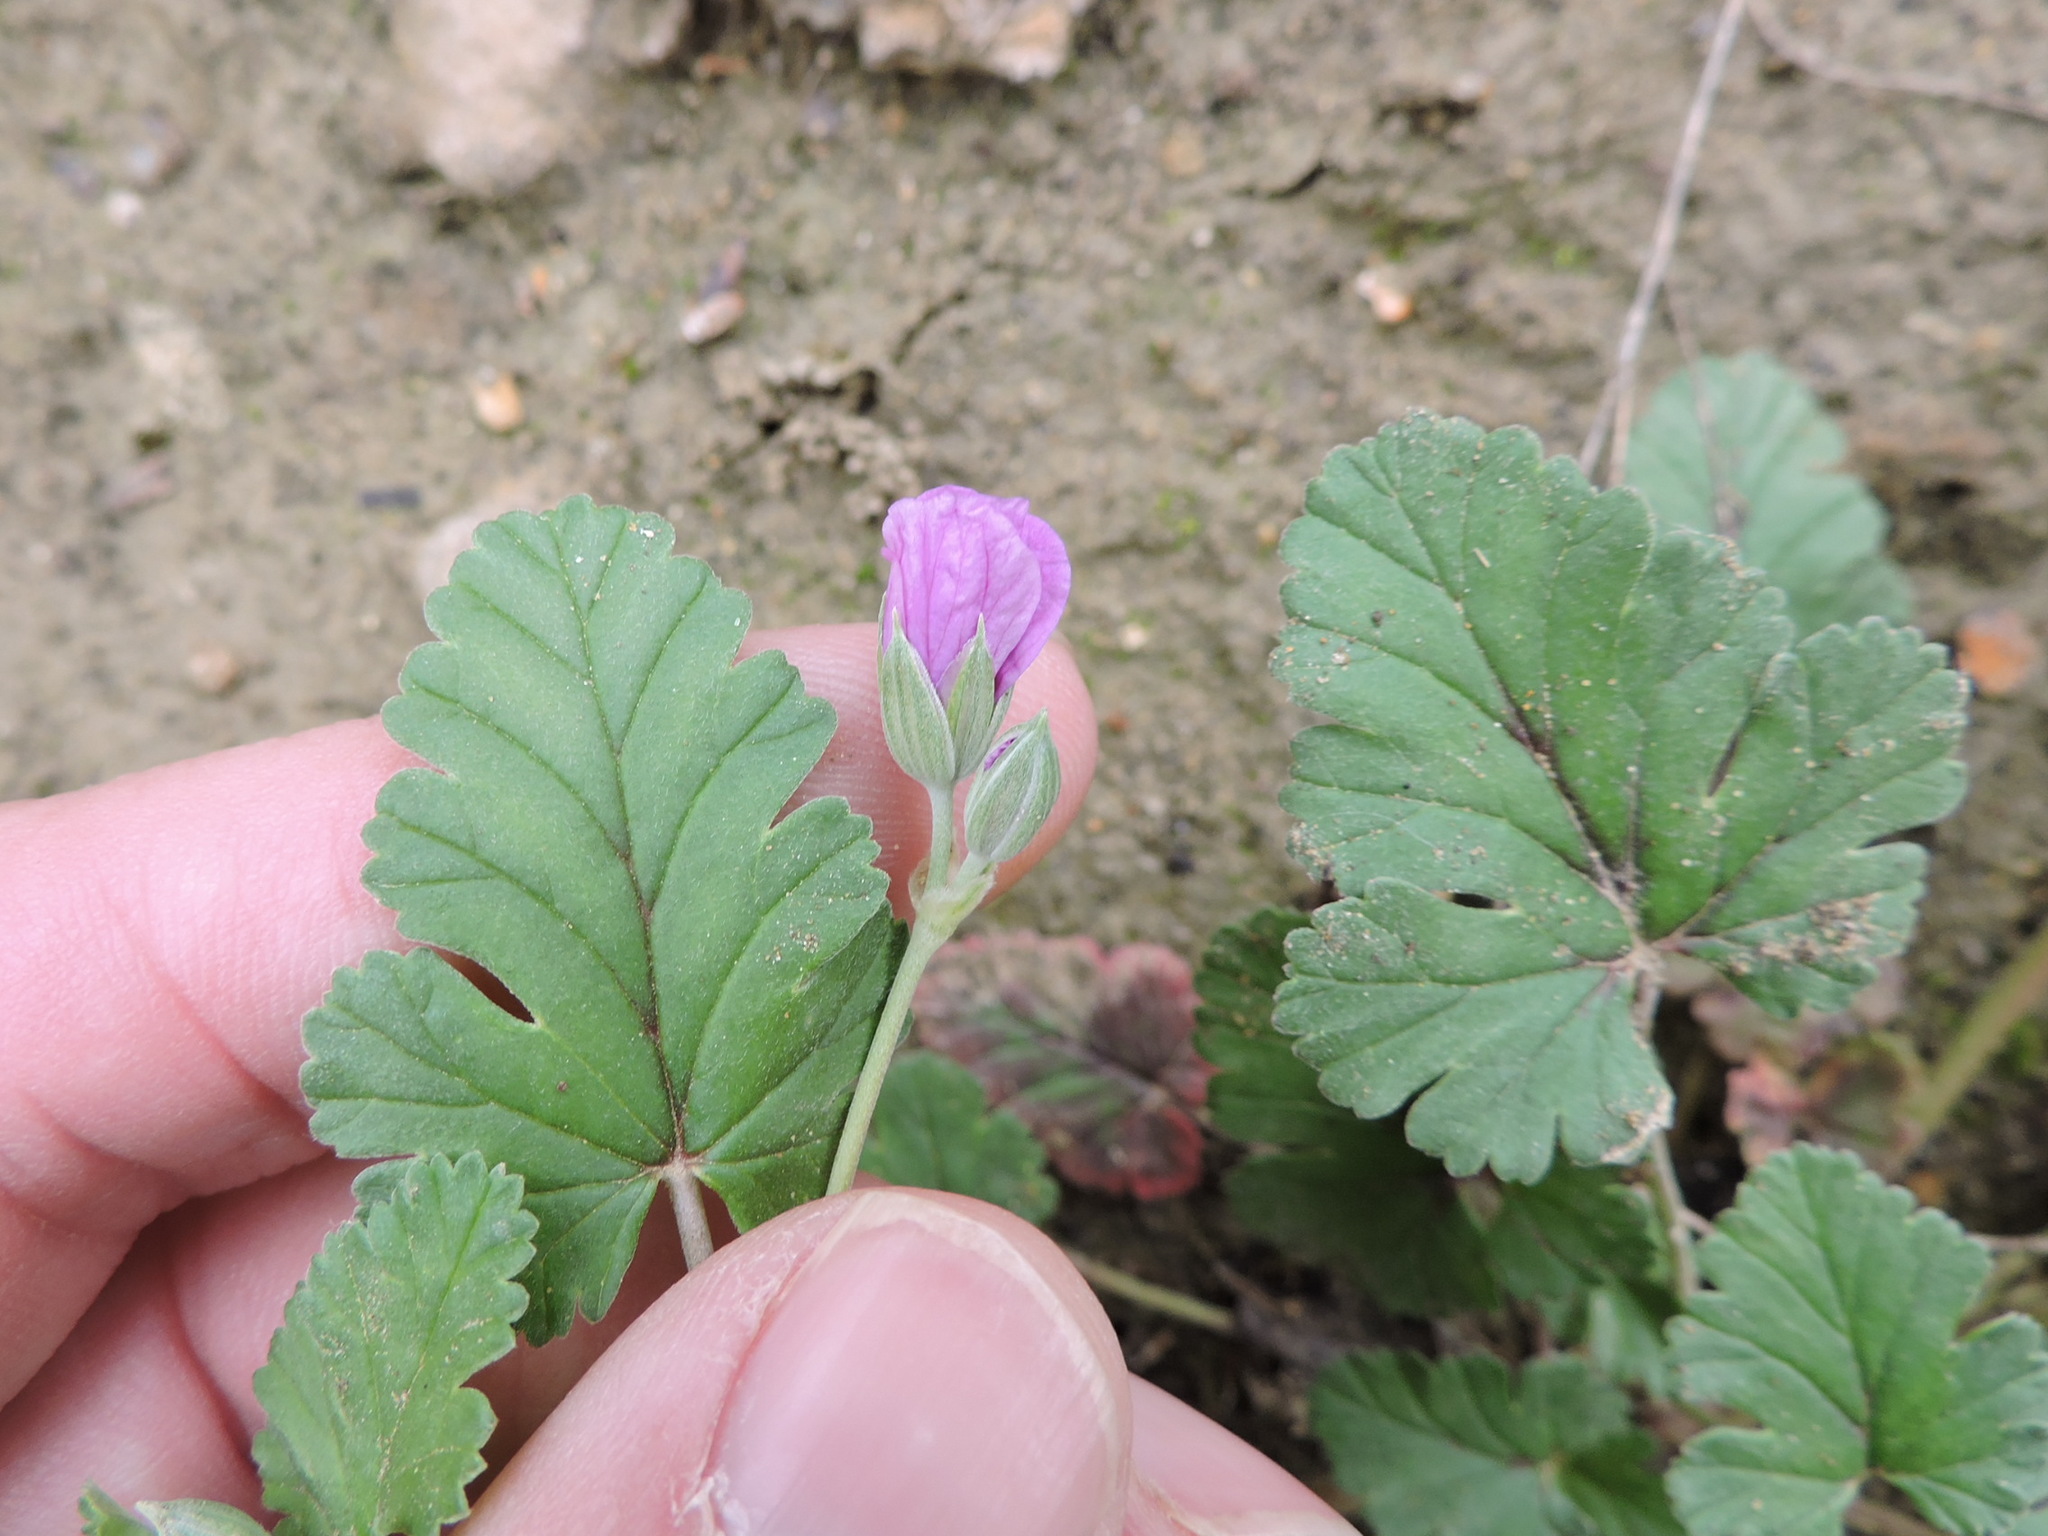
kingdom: Plantae
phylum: Tracheophyta
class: Magnoliopsida
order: Geraniales
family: Geraniaceae
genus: Erodium
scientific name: Erodium texanum
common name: Texas stork's-bill
